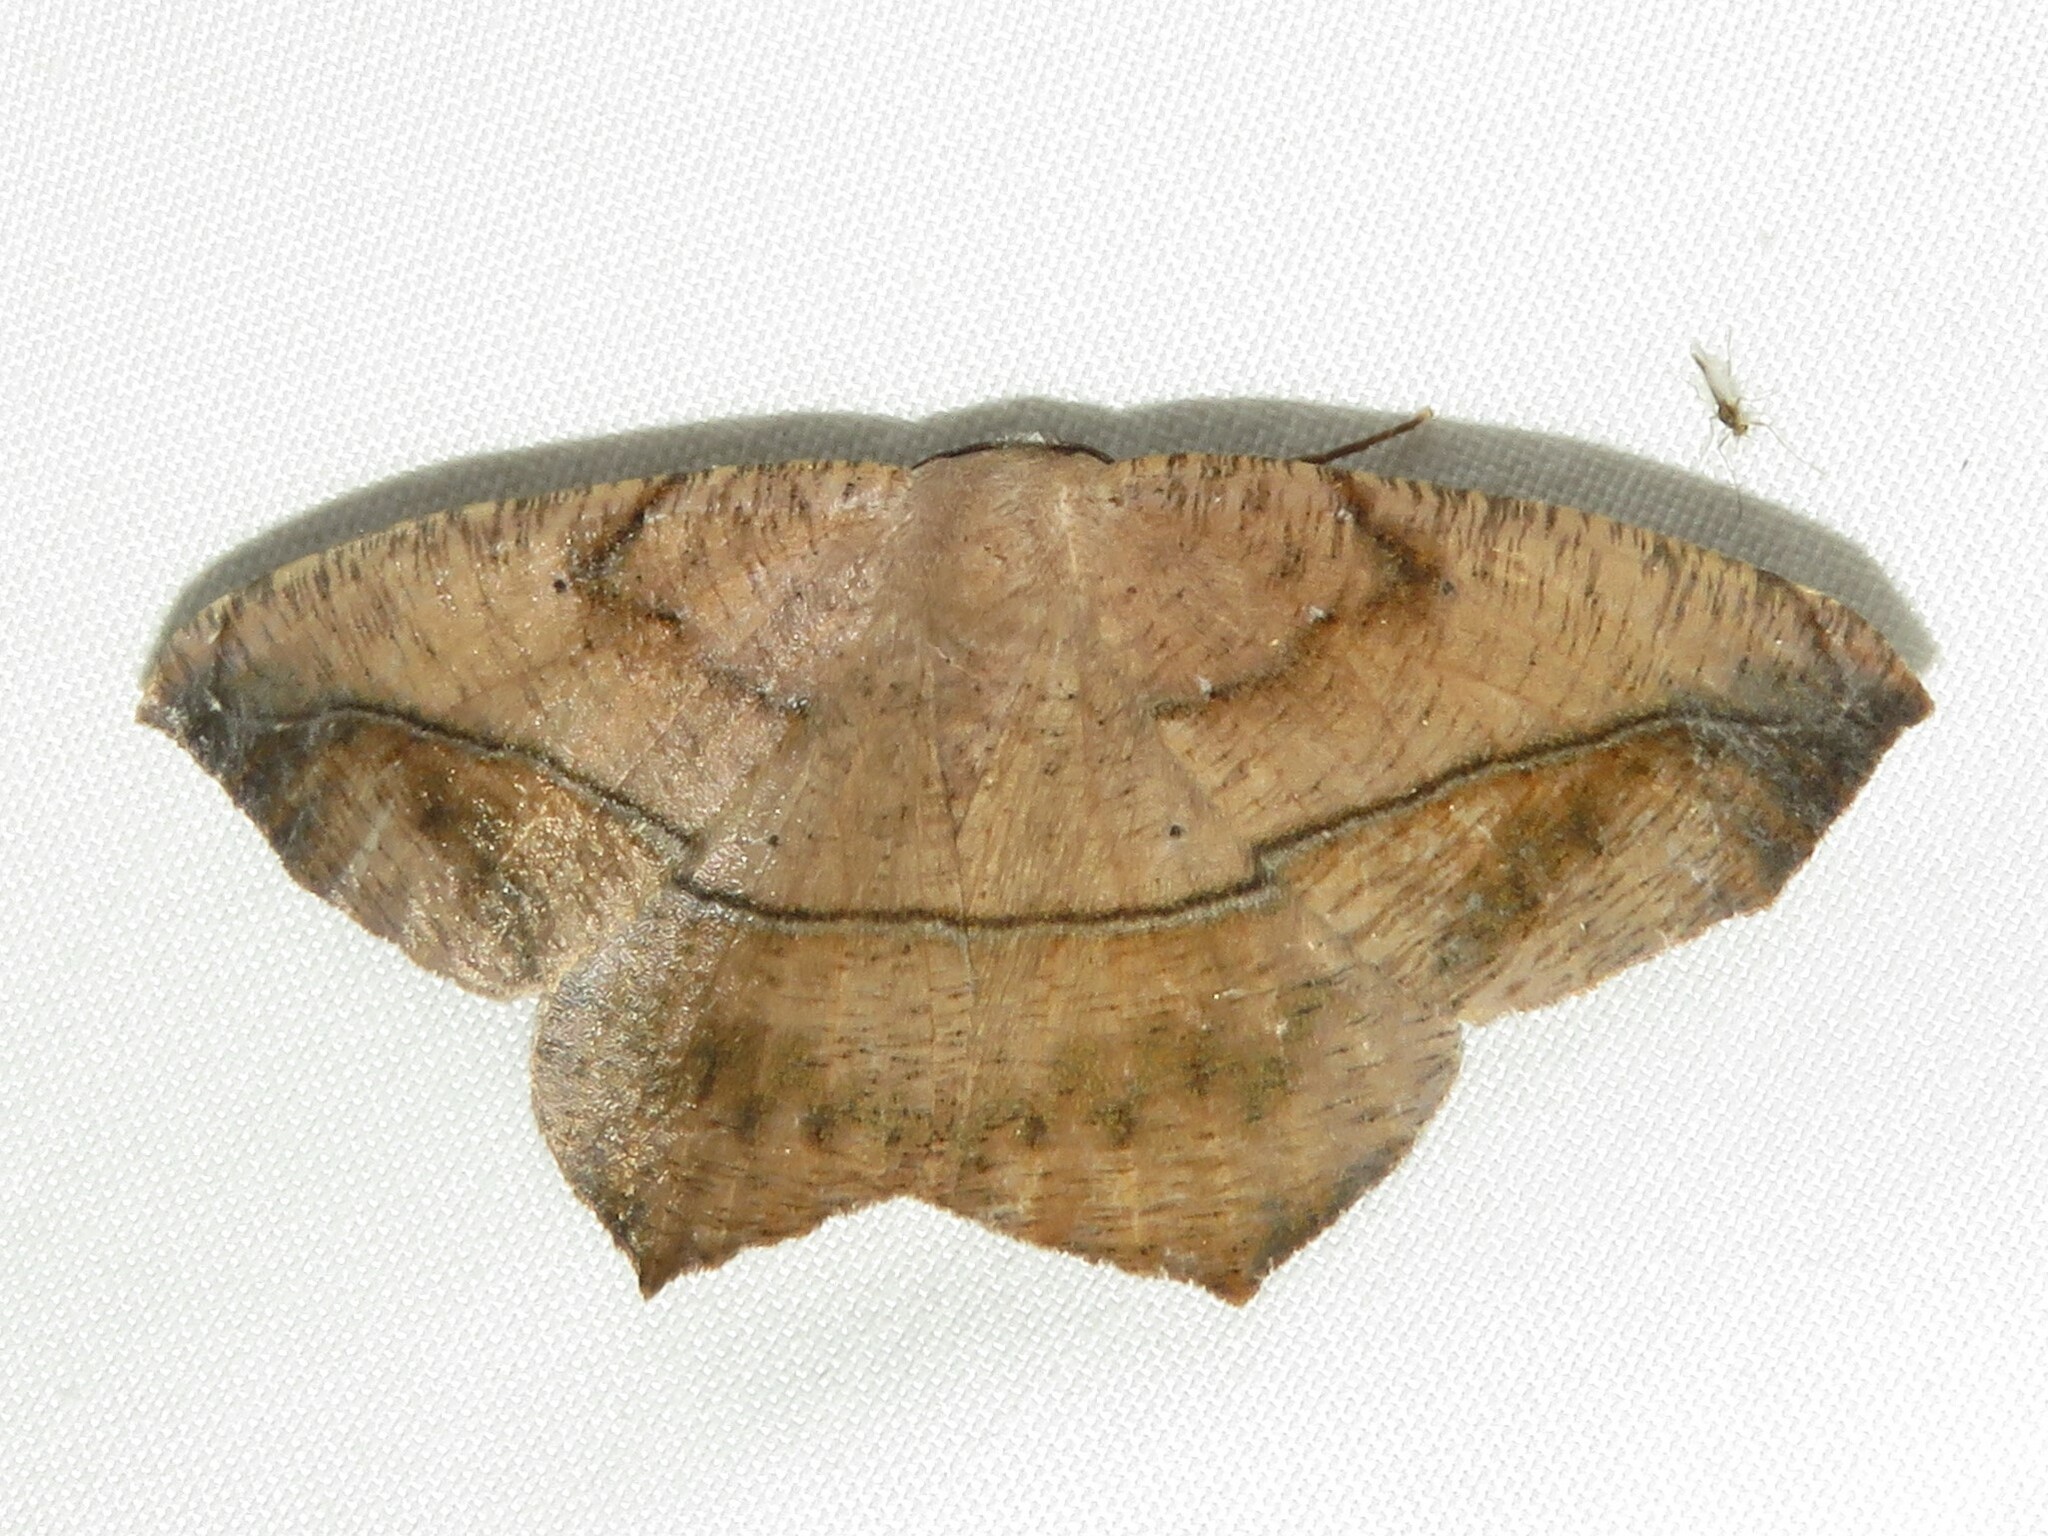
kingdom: Animalia
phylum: Arthropoda
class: Insecta
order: Lepidoptera
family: Geometridae
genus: Prochoerodes
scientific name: Prochoerodes lineola
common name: Large maple spanworm
